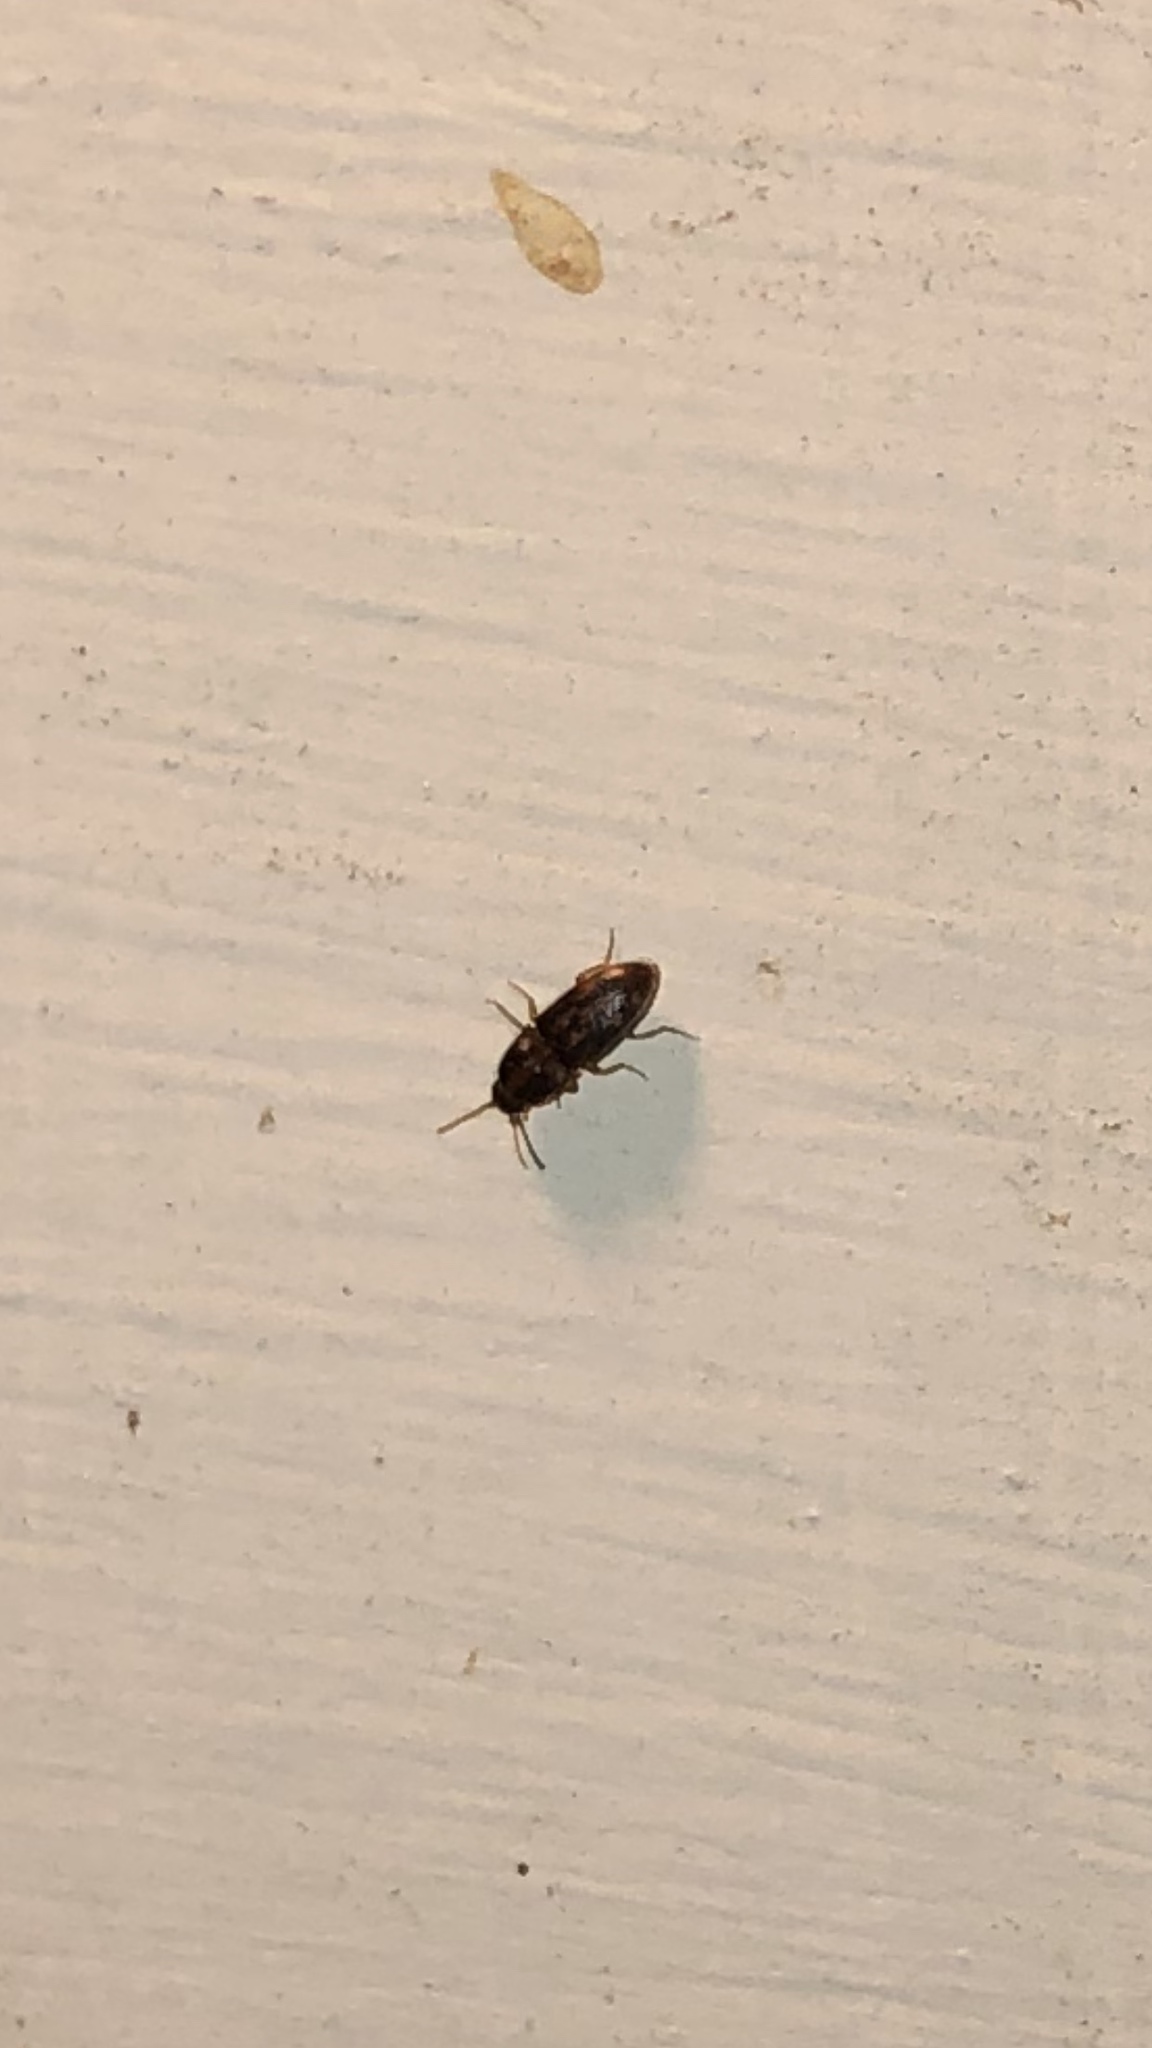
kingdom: Animalia
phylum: Arthropoda
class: Insecta
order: Coleoptera
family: Elateridae
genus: Monocrepidius
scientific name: Monocrepidius bellus
